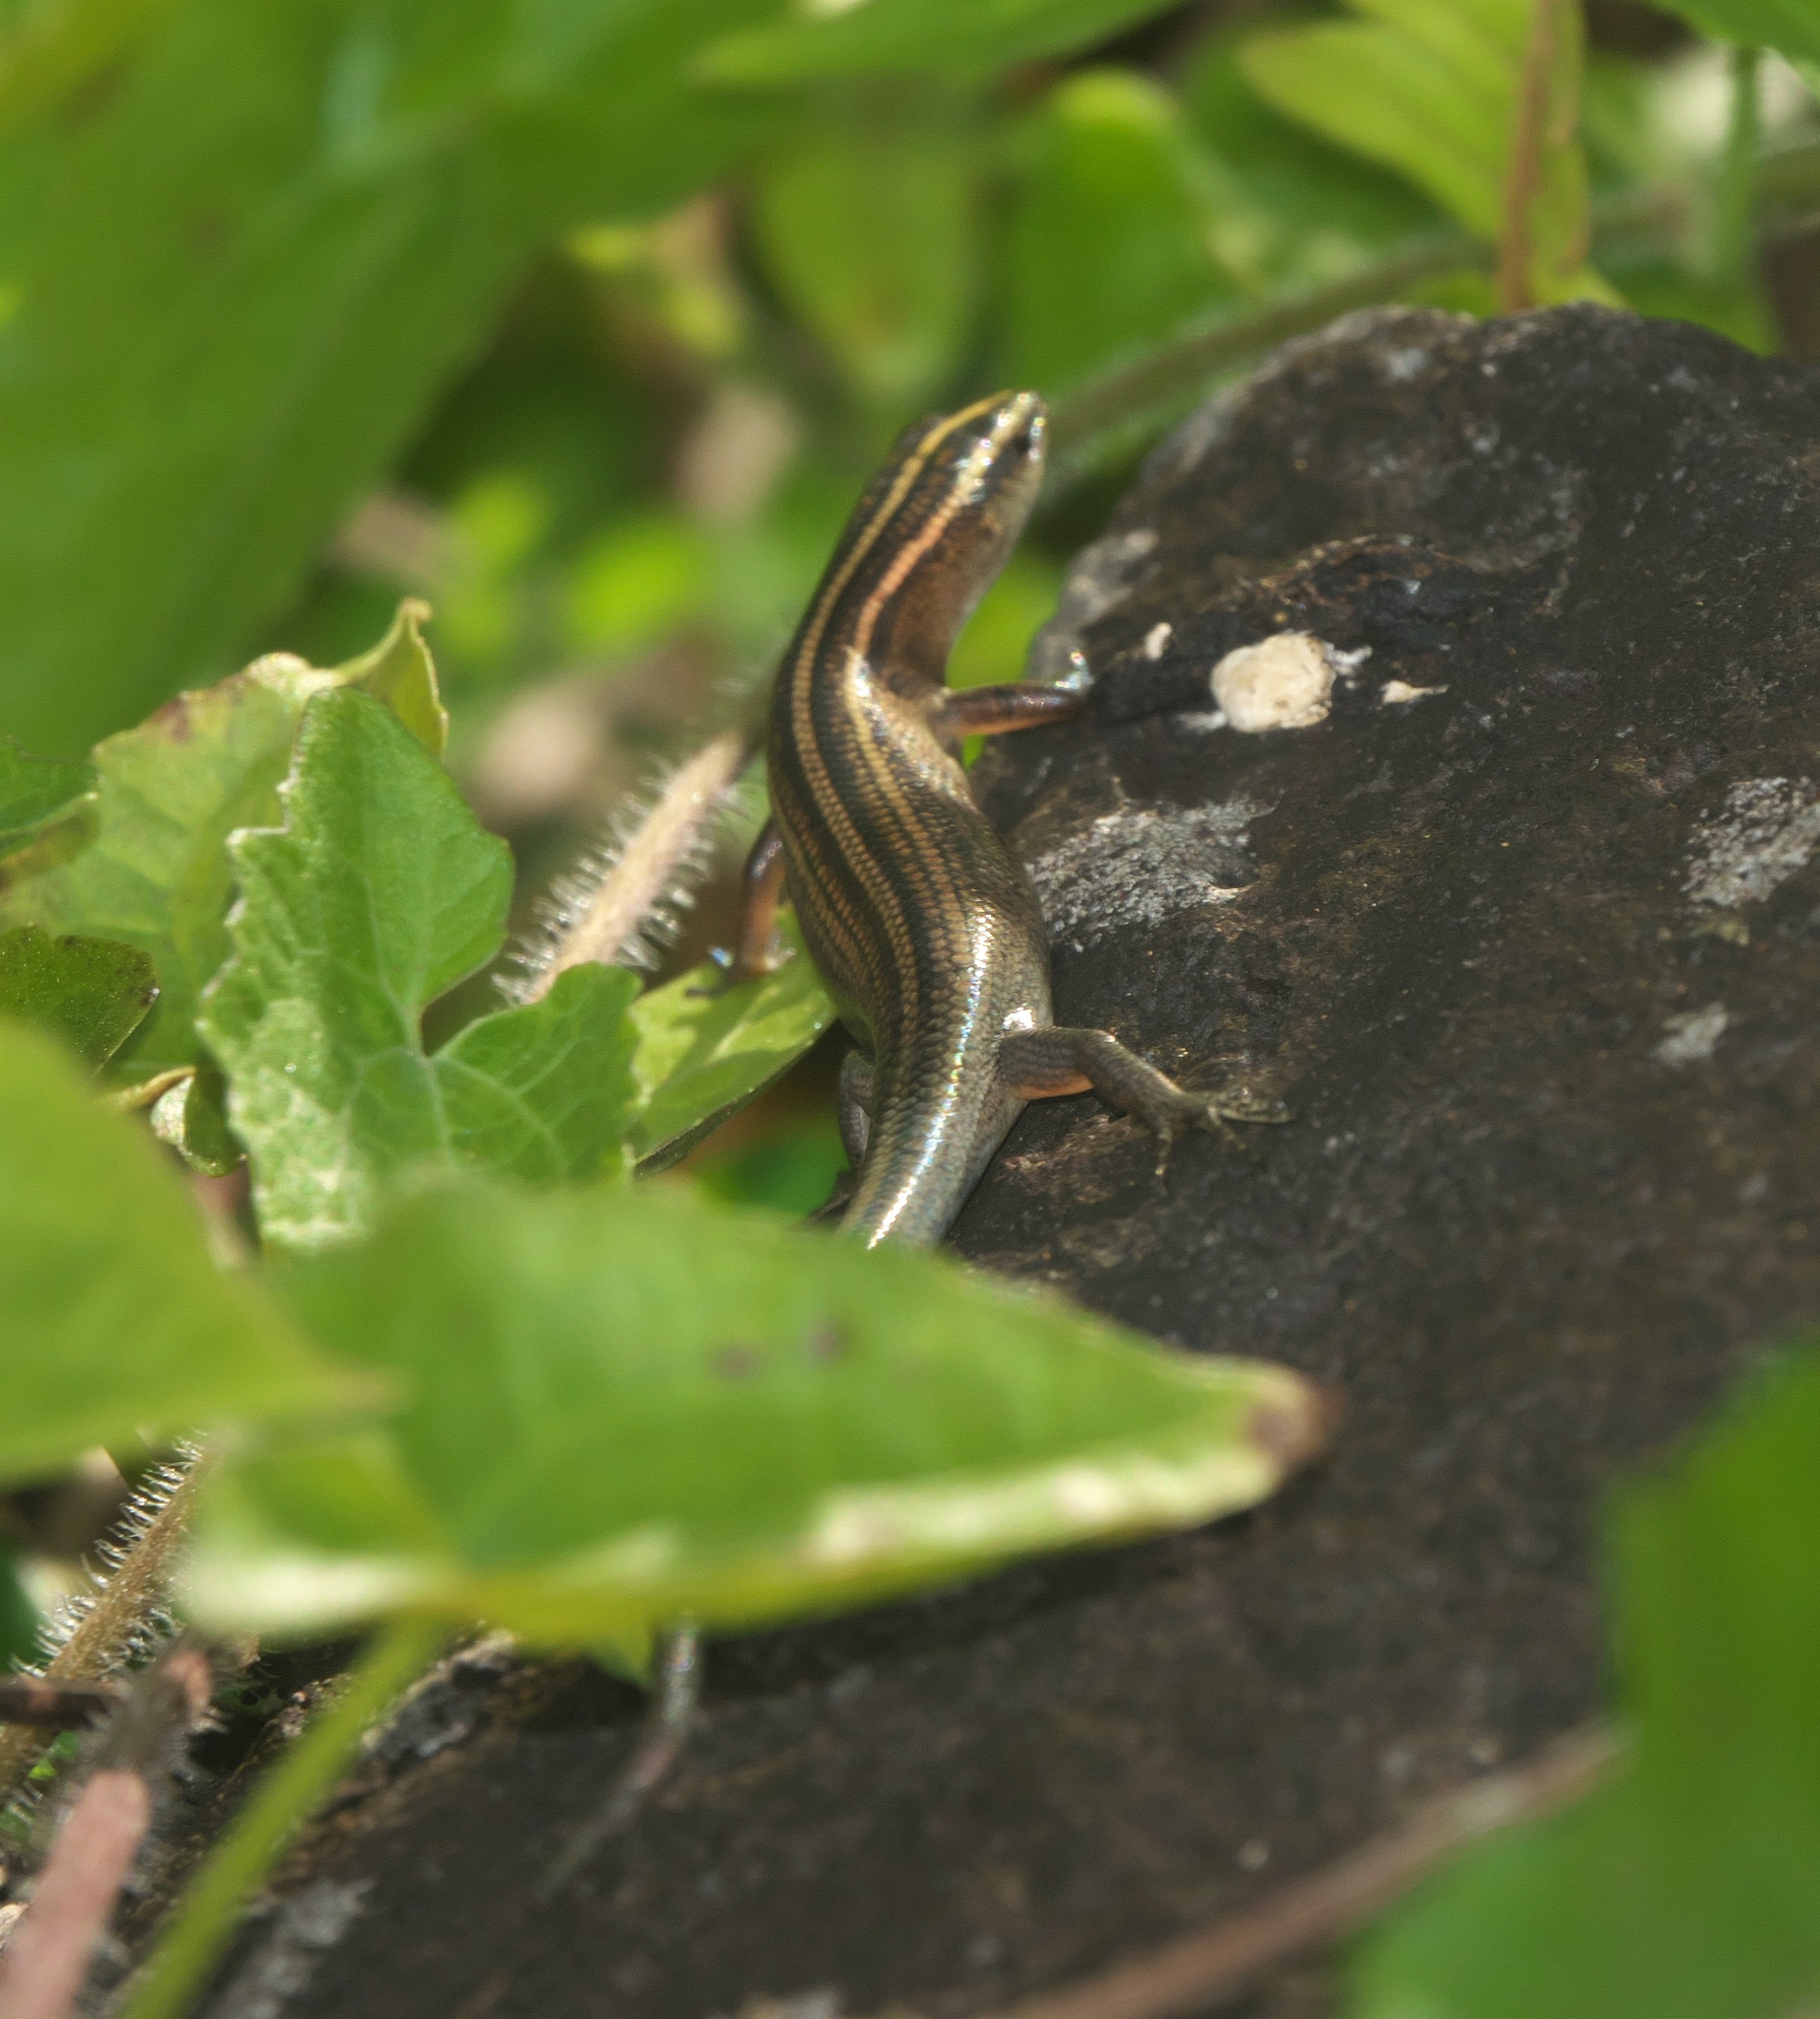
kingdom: Animalia
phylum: Chordata
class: Squamata
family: Scincidae
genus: Emoia
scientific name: Emoia cyanura
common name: Copper-tailed skink
